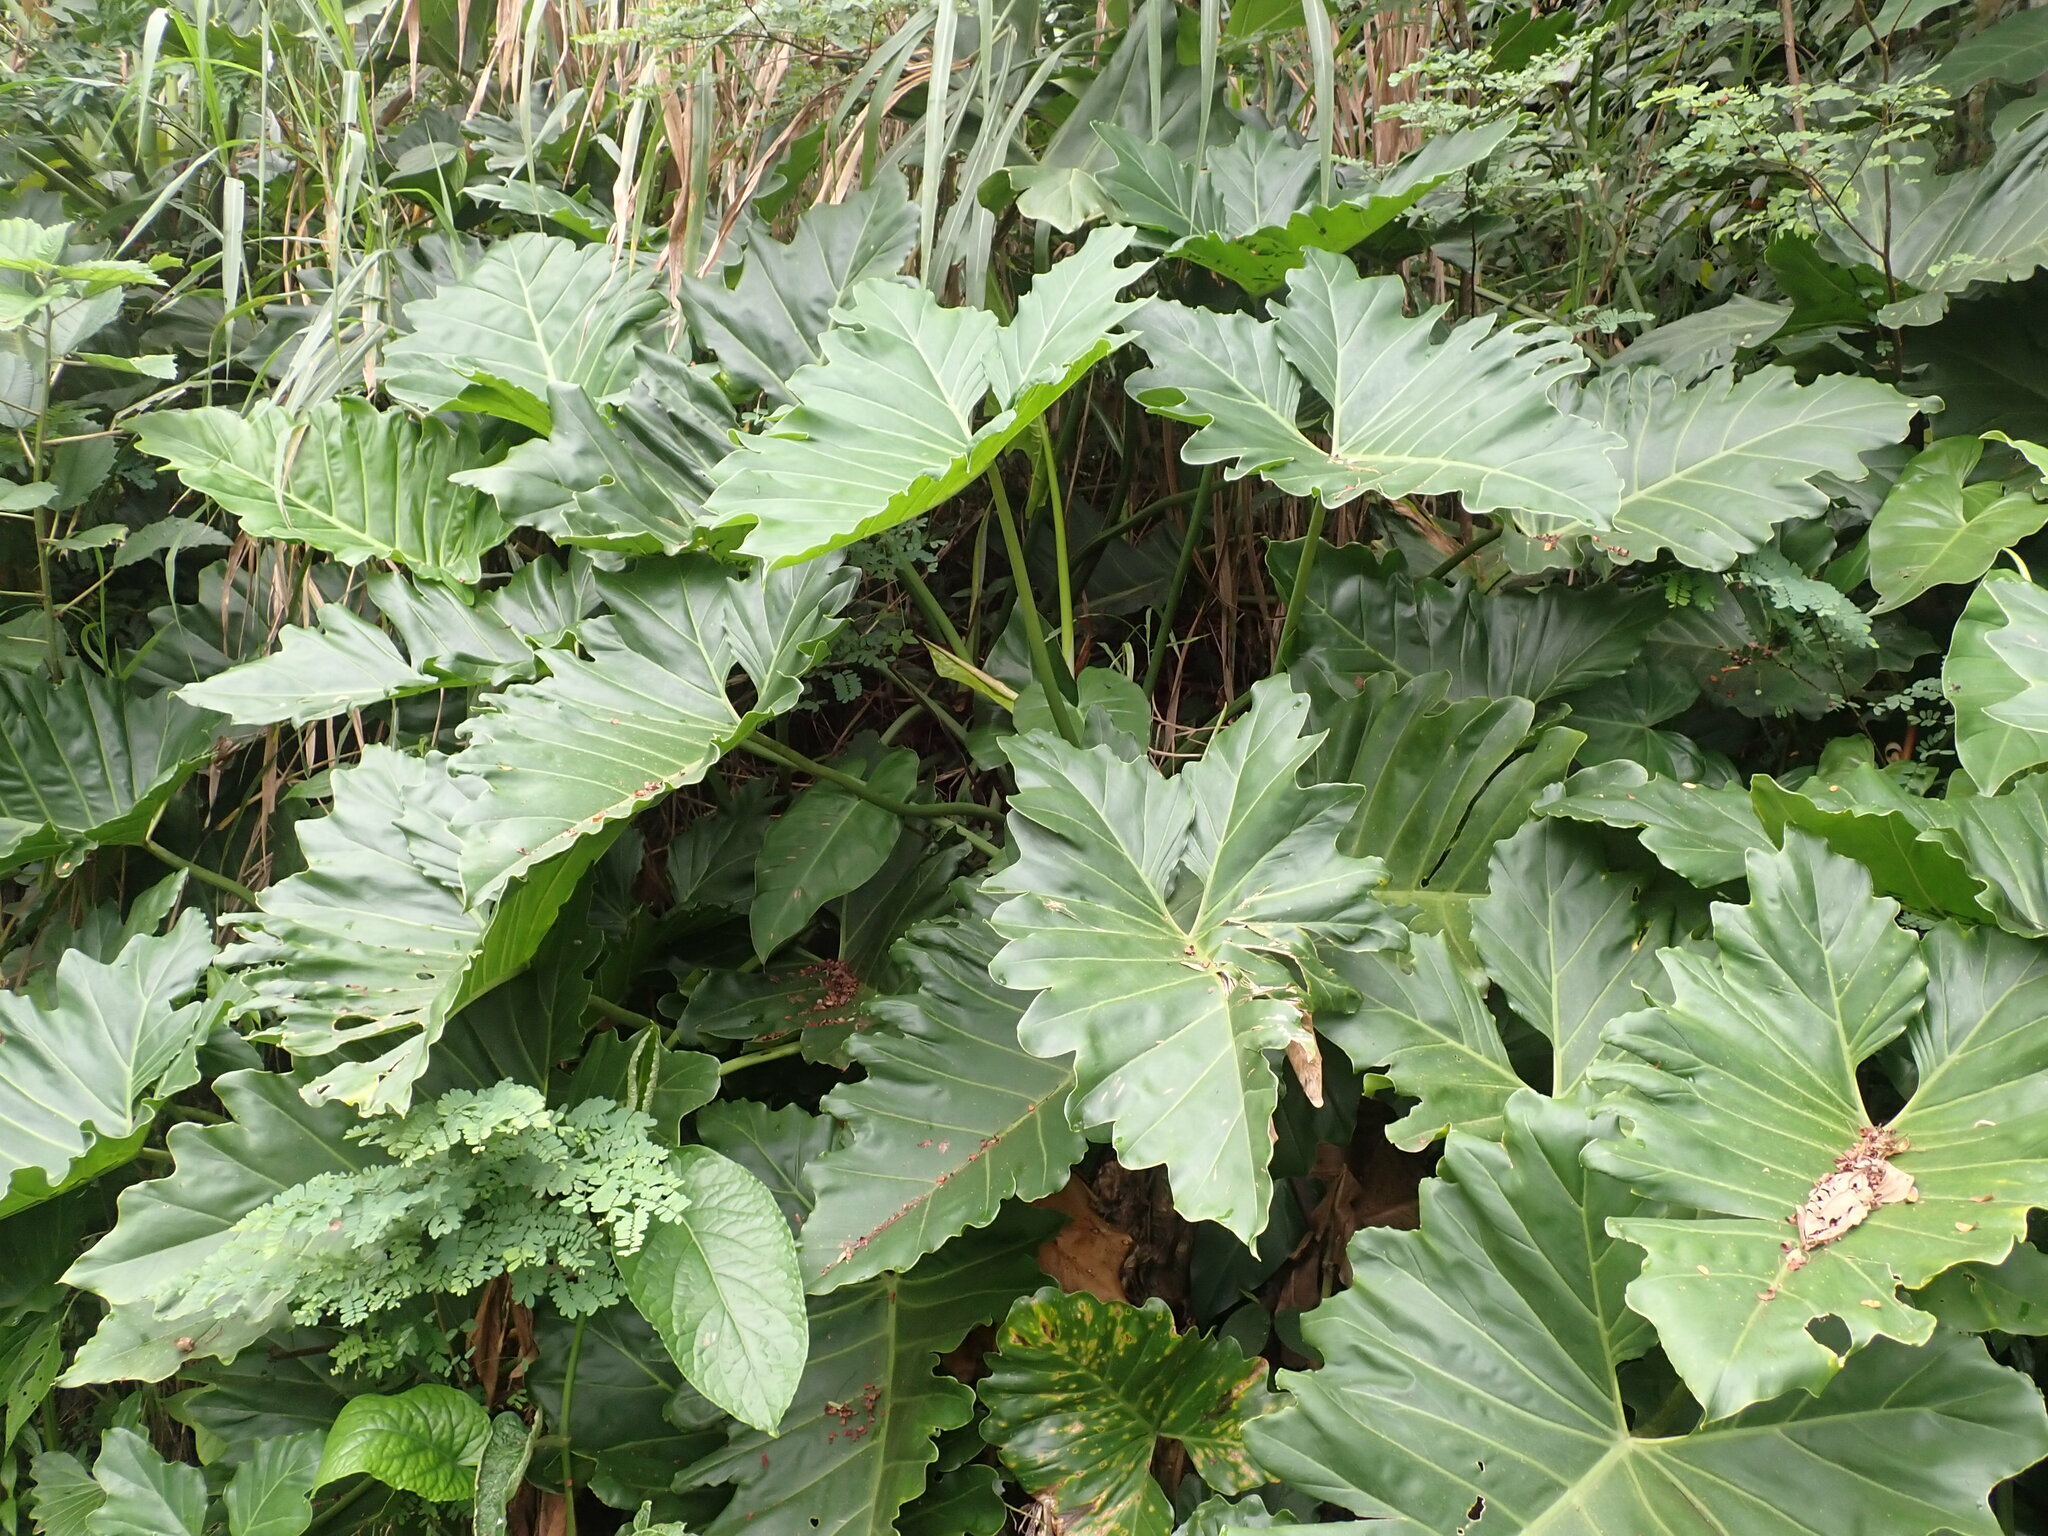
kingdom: Plantae
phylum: Tracheophyta
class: Liliopsida
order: Alismatales
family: Araceae
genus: Thaumatophyllum
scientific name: Thaumatophyllum undulatum
